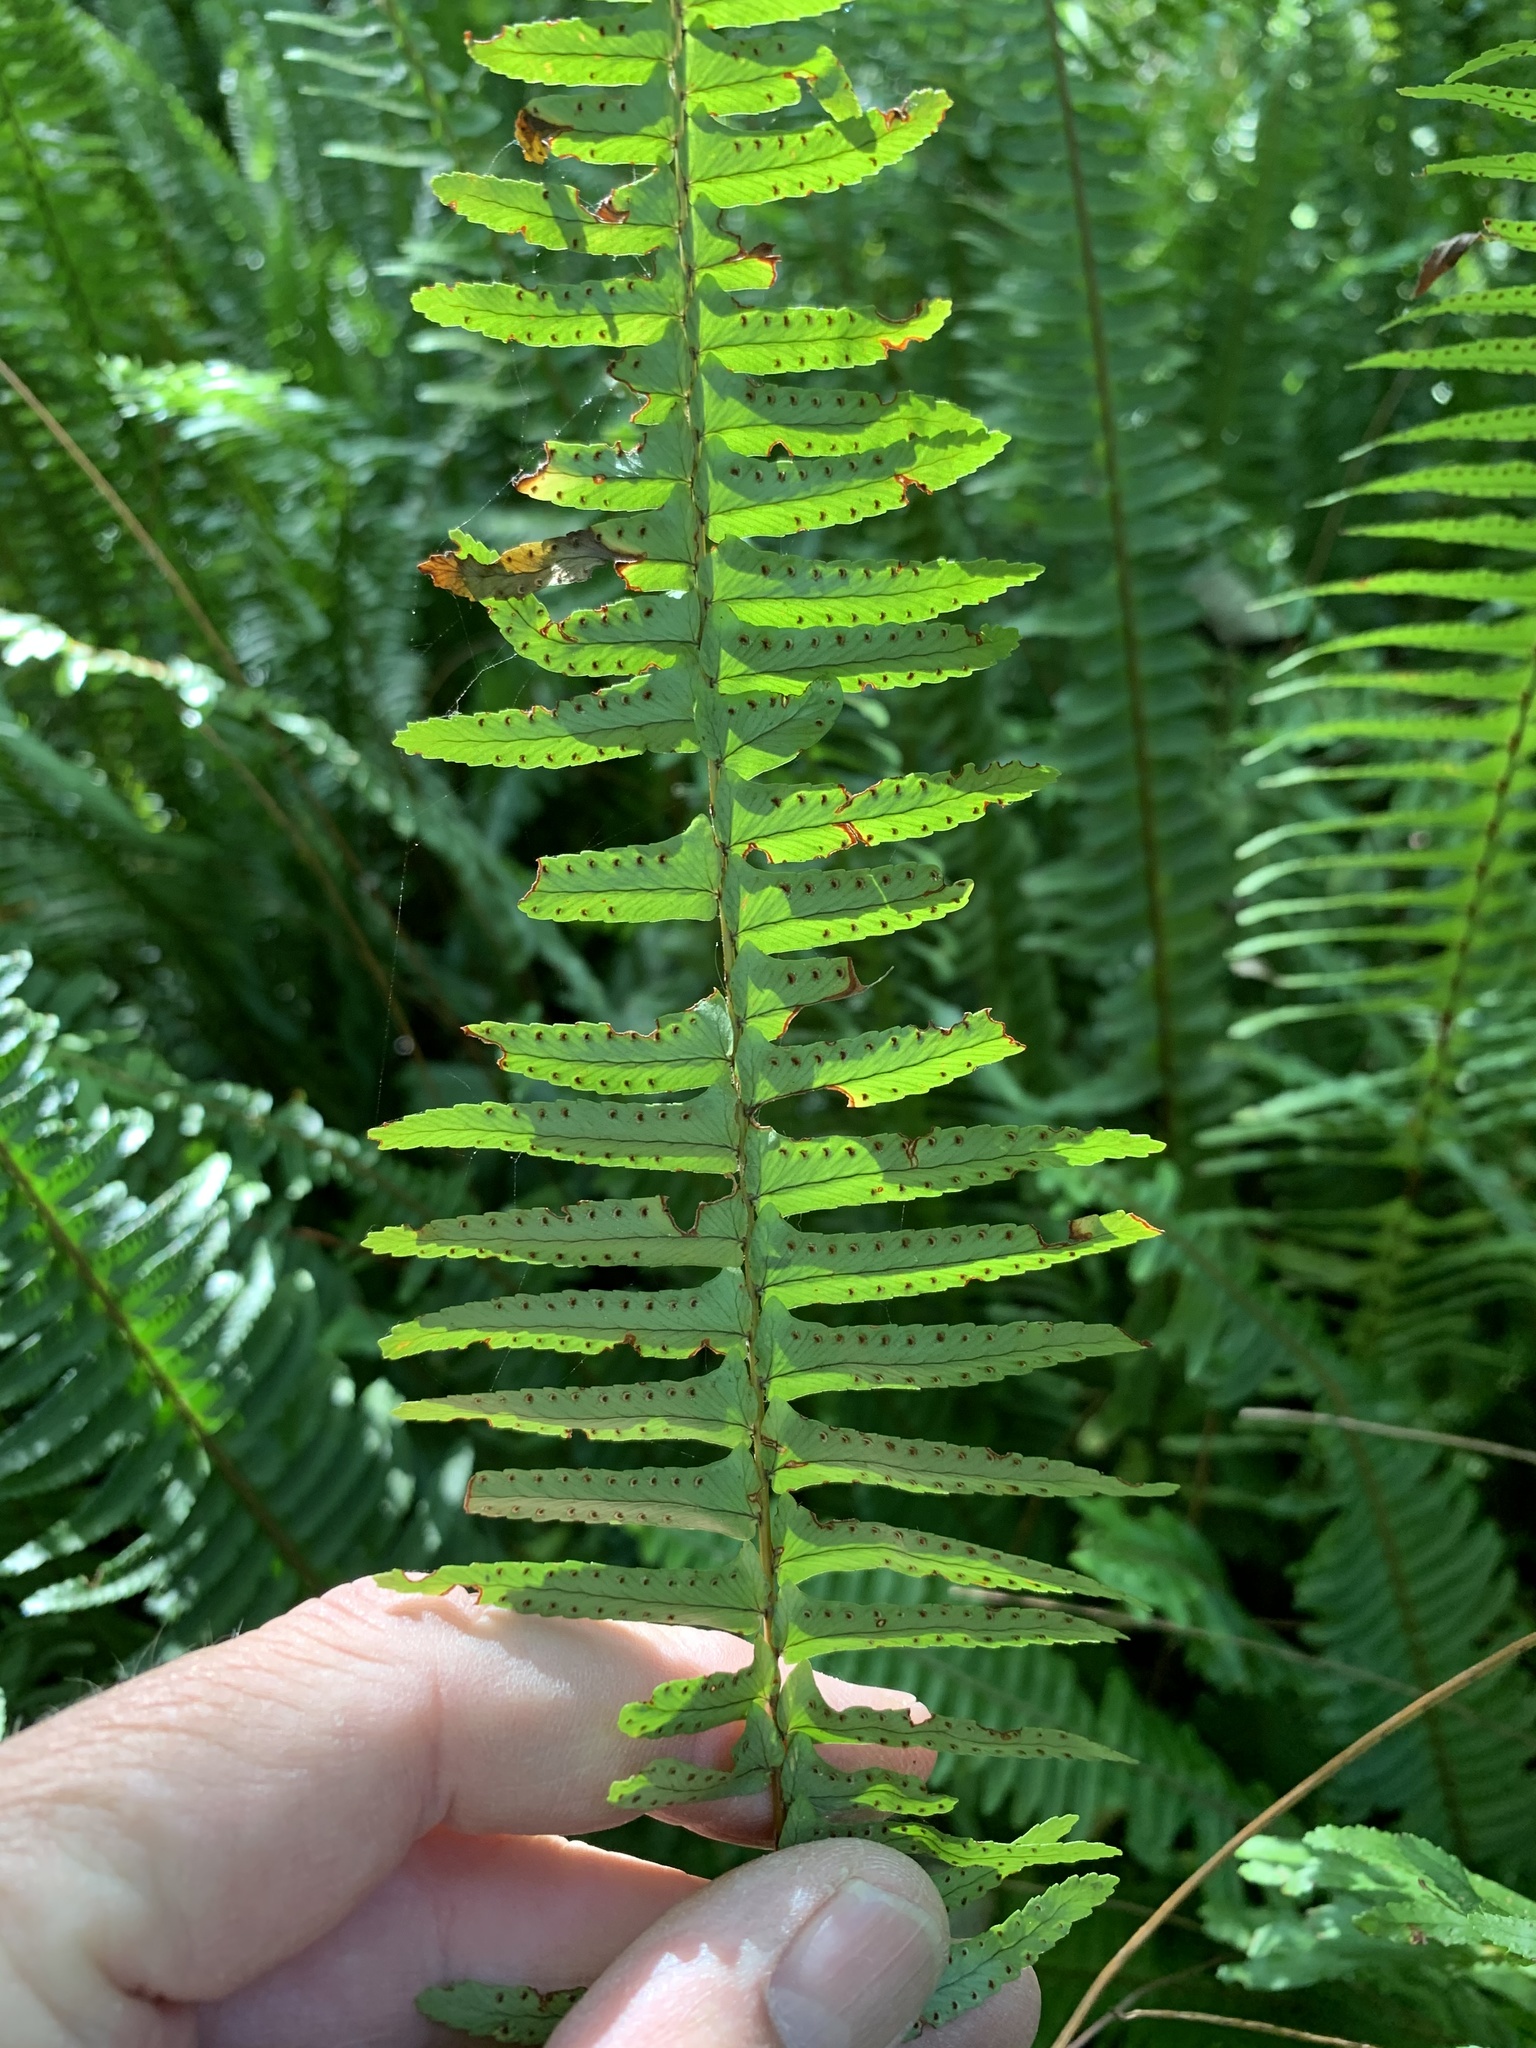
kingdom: Plantae
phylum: Tracheophyta
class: Polypodiopsida
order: Polypodiales
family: Nephrolepidaceae
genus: Nephrolepis
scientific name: Nephrolepis cordifolia
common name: Narrow swordfern
